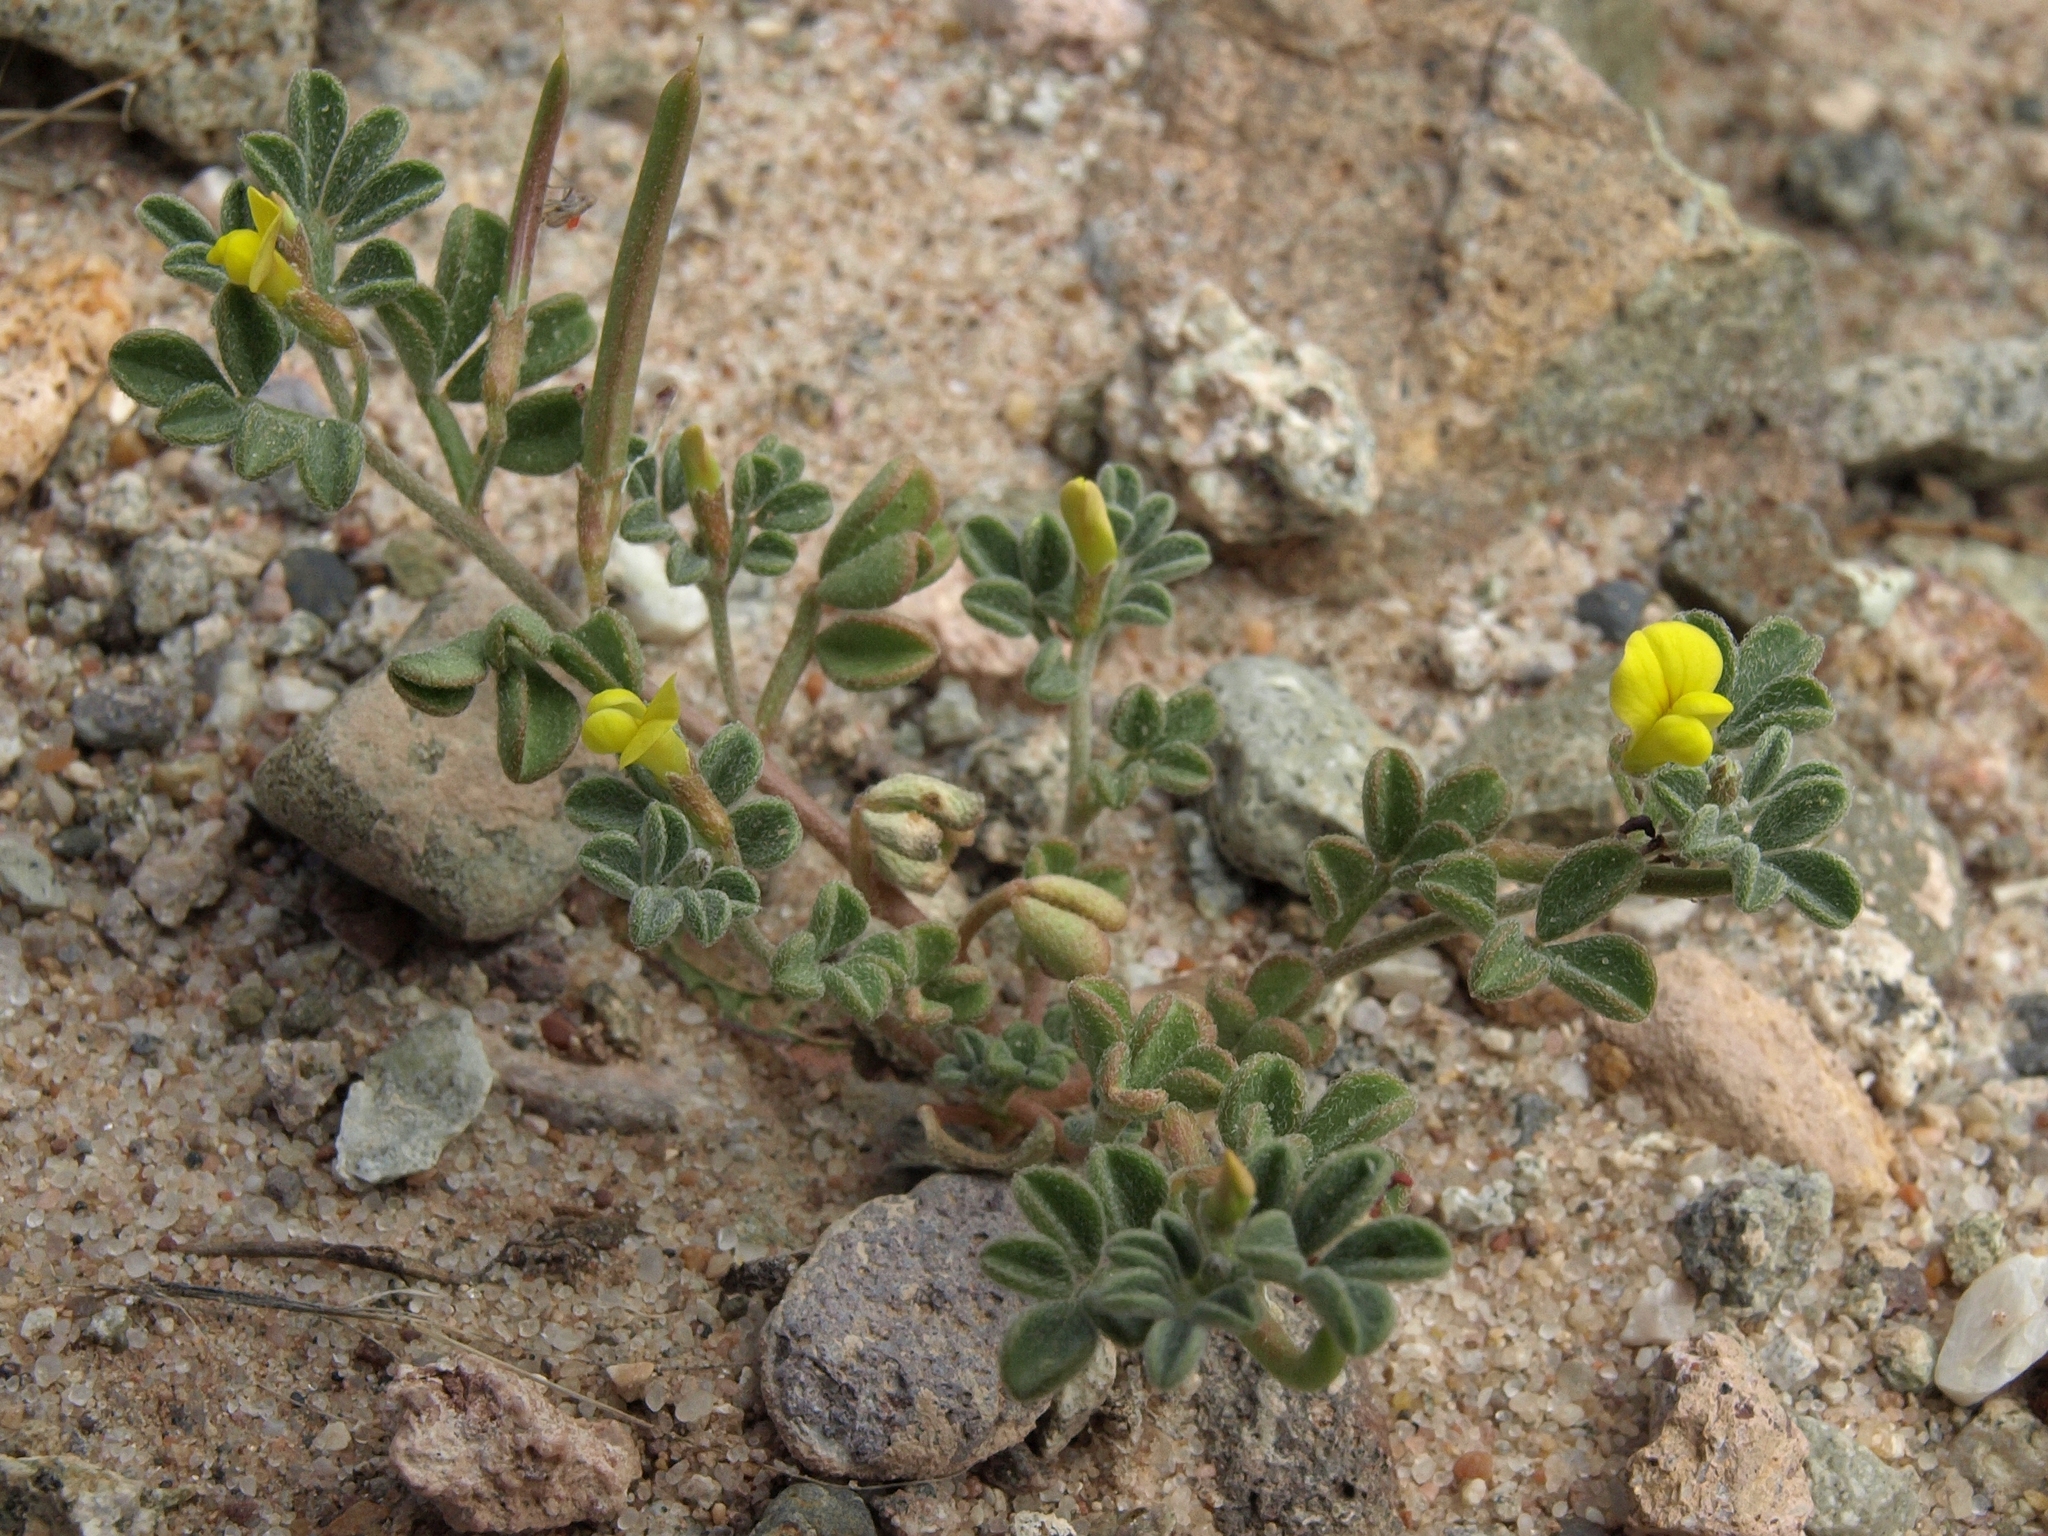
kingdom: Plantae
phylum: Tracheophyta
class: Magnoliopsida
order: Fabales
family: Fabaceae
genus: Acmispon
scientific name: Acmispon strigosus
